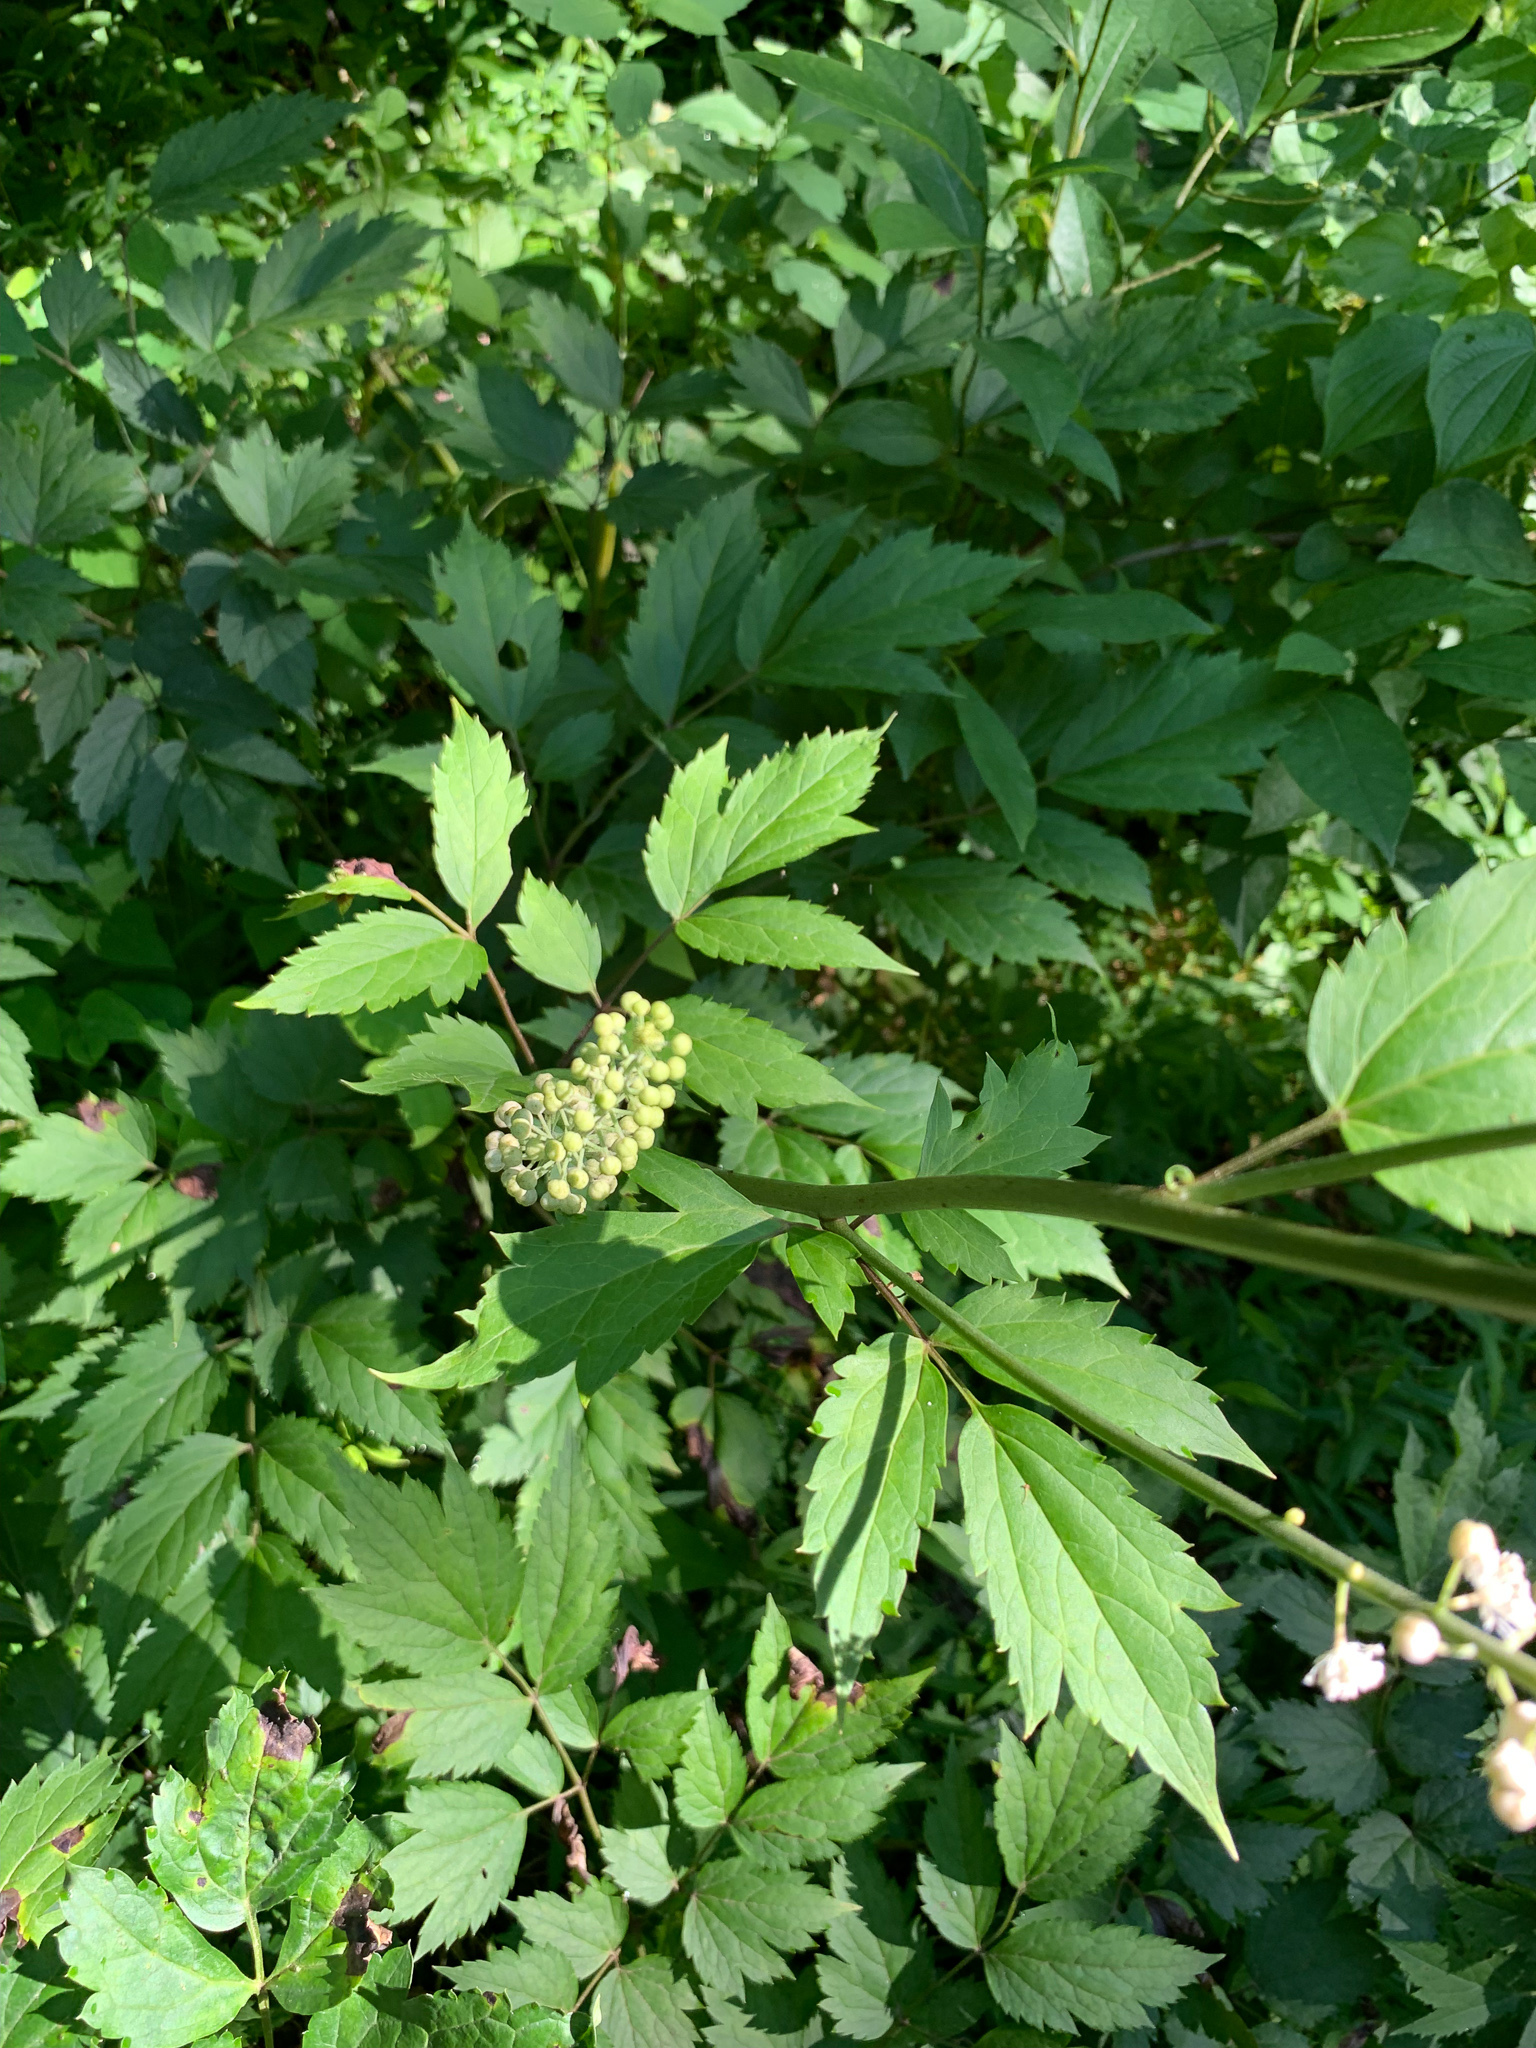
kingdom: Plantae
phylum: Tracheophyta
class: Magnoliopsida
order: Ranunculales
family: Ranunculaceae
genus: Actaea
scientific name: Actaea racemosa
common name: Black cohosh
